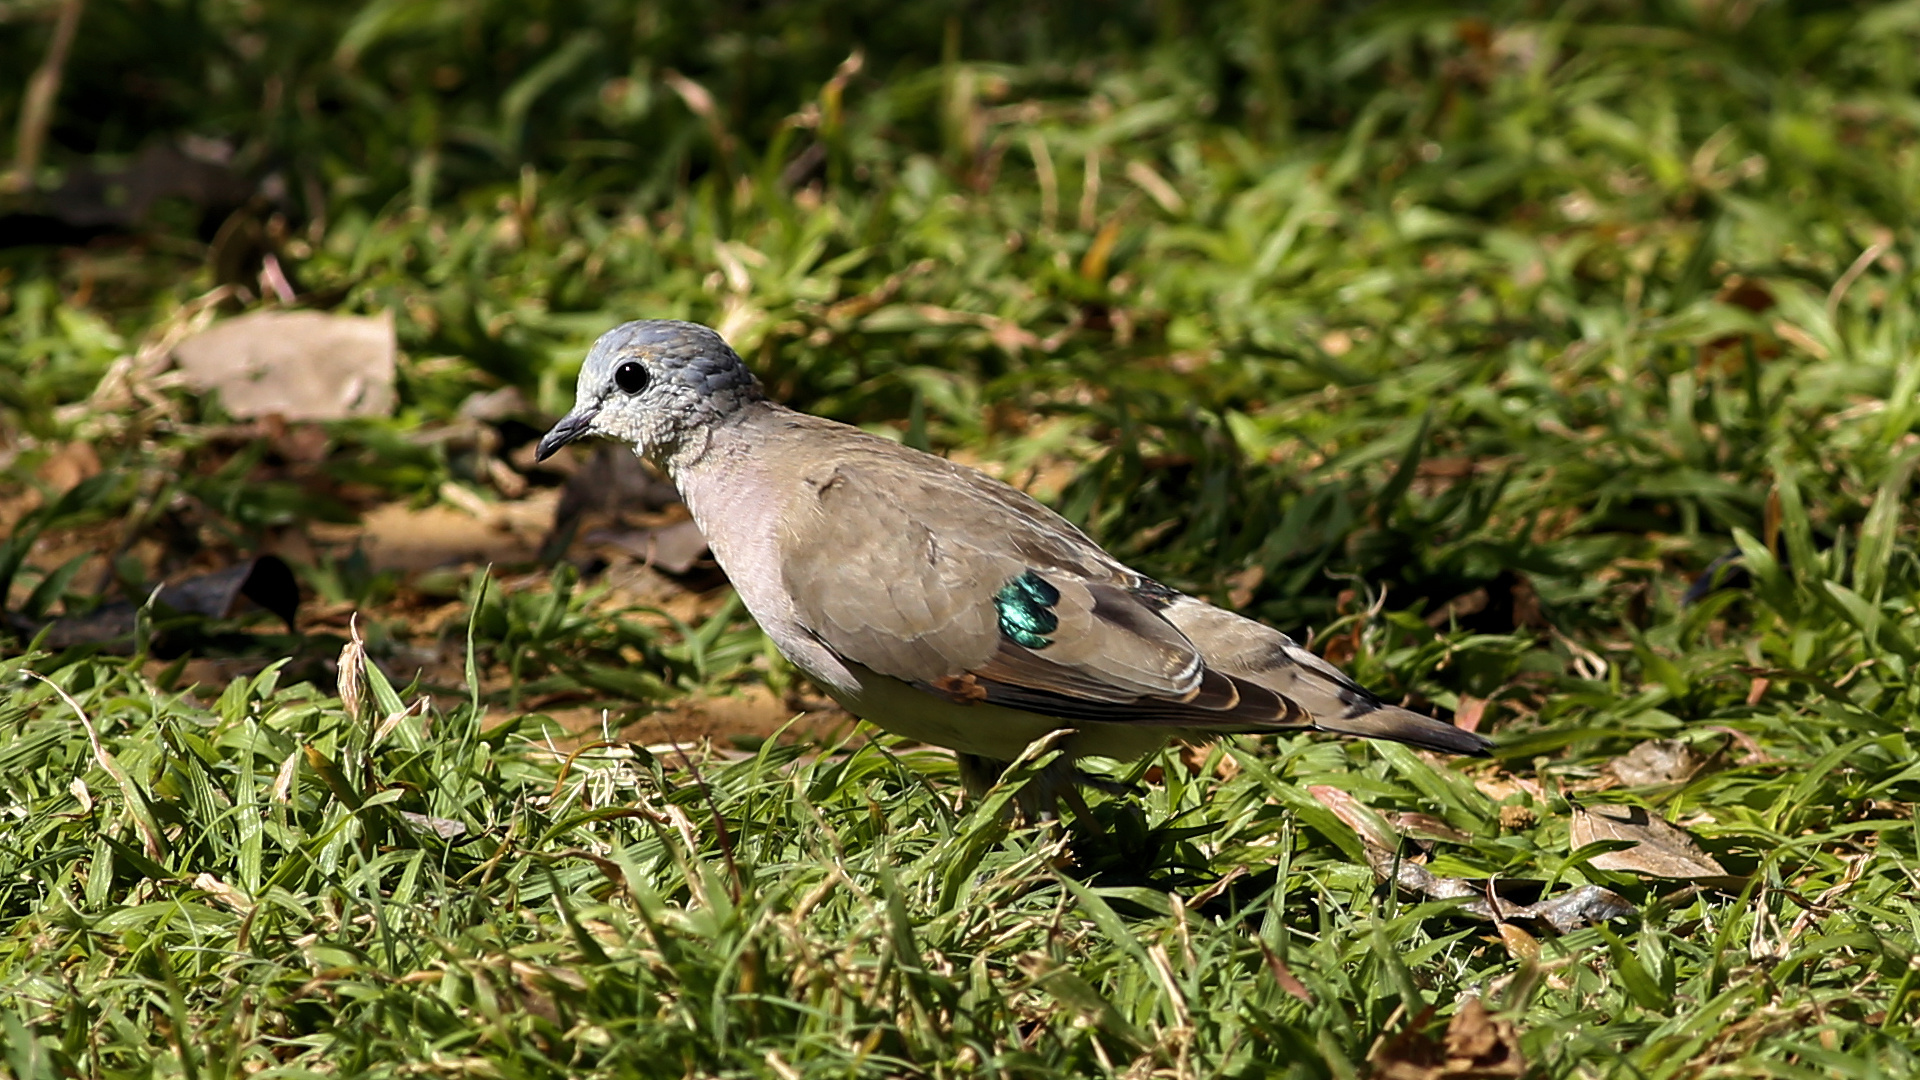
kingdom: Animalia
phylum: Chordata
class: Aves
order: Columbiformes
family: Columbidae
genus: Turtur
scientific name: Turtur chalcospilos
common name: Emerald-spotted wood dove
